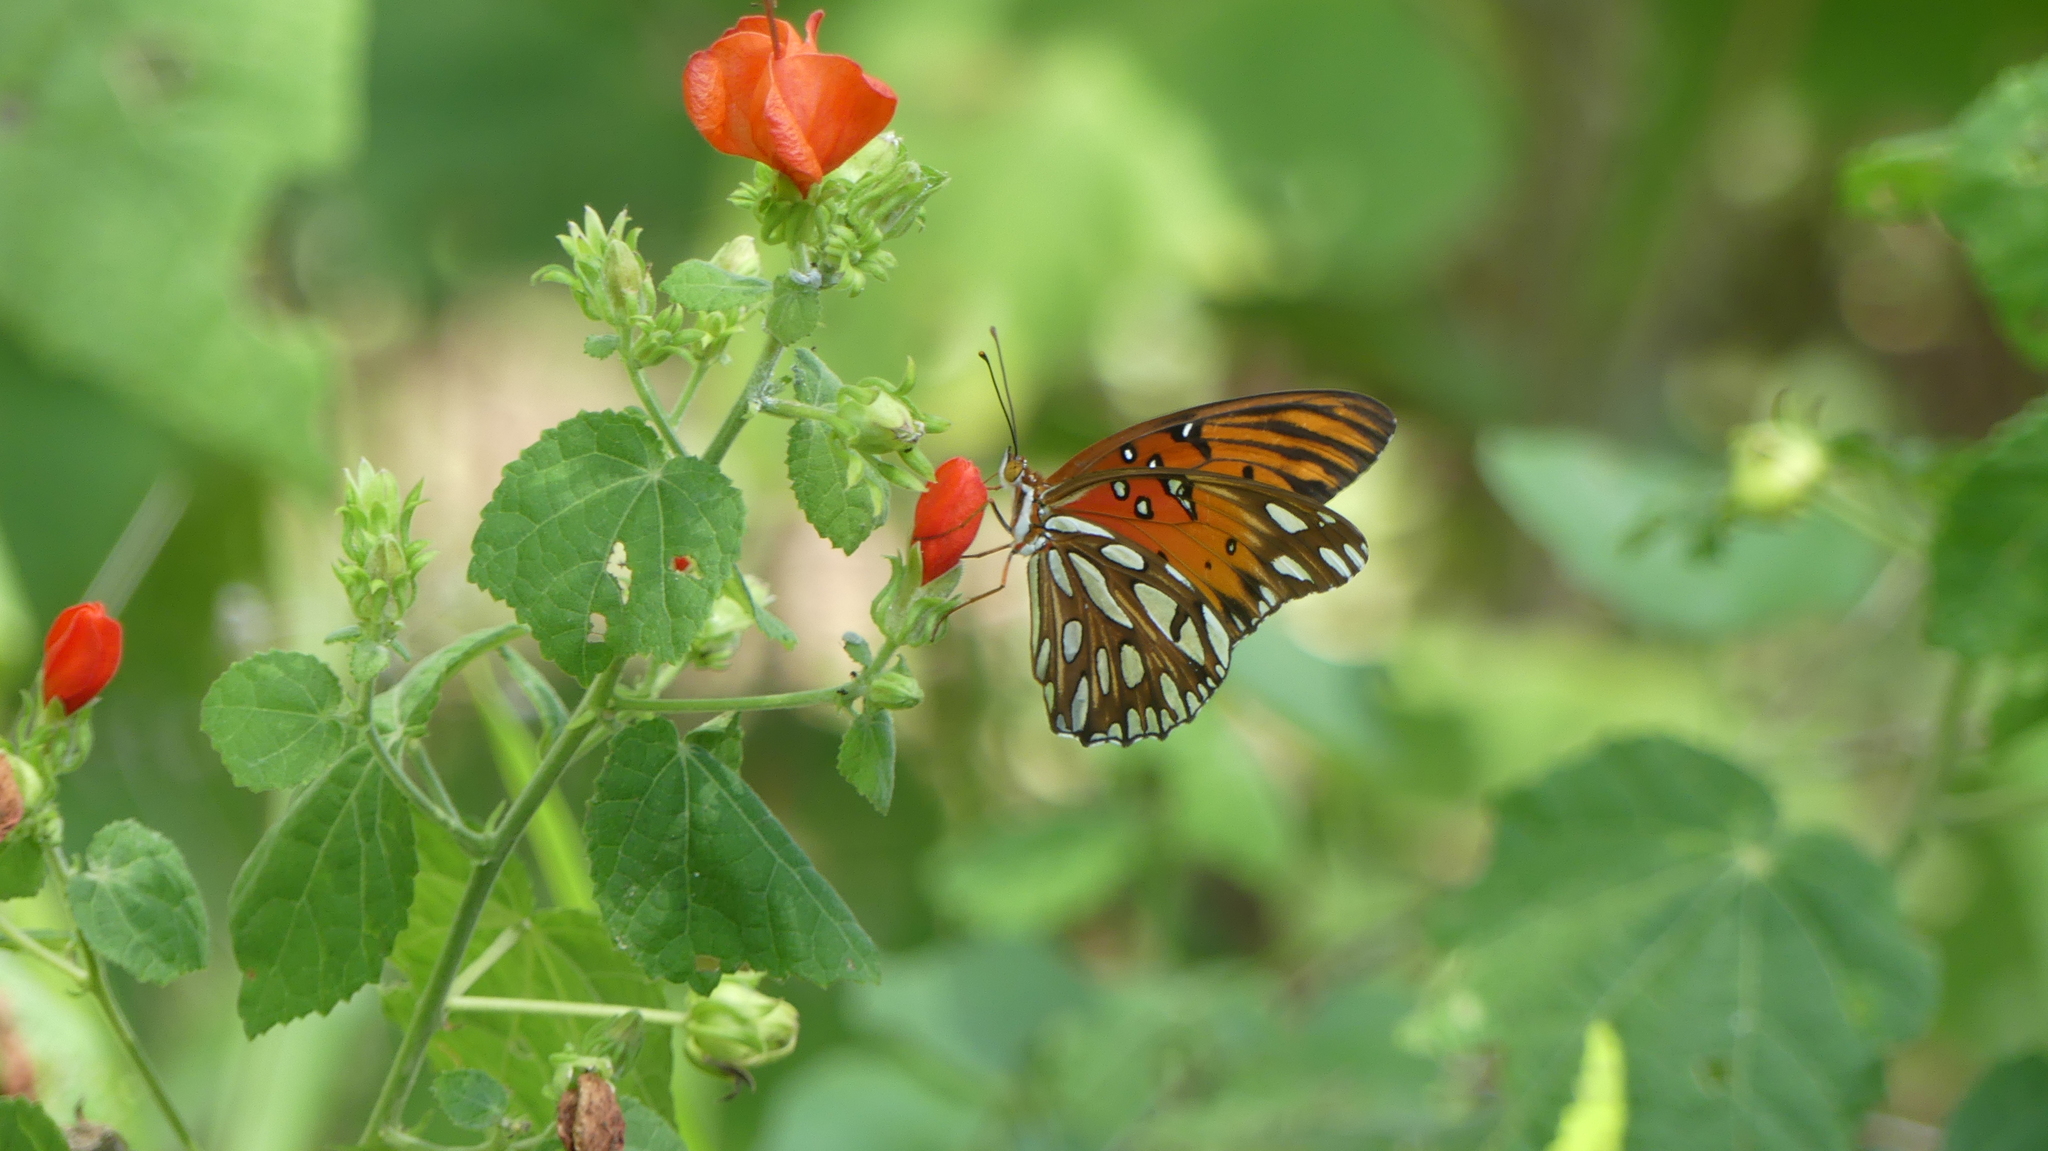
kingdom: Animalia
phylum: Arthropoda
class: Insecta
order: Lepidoptera
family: Nymphalidae
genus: Dione
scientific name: Dione vanillae
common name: Gulf fritillary
